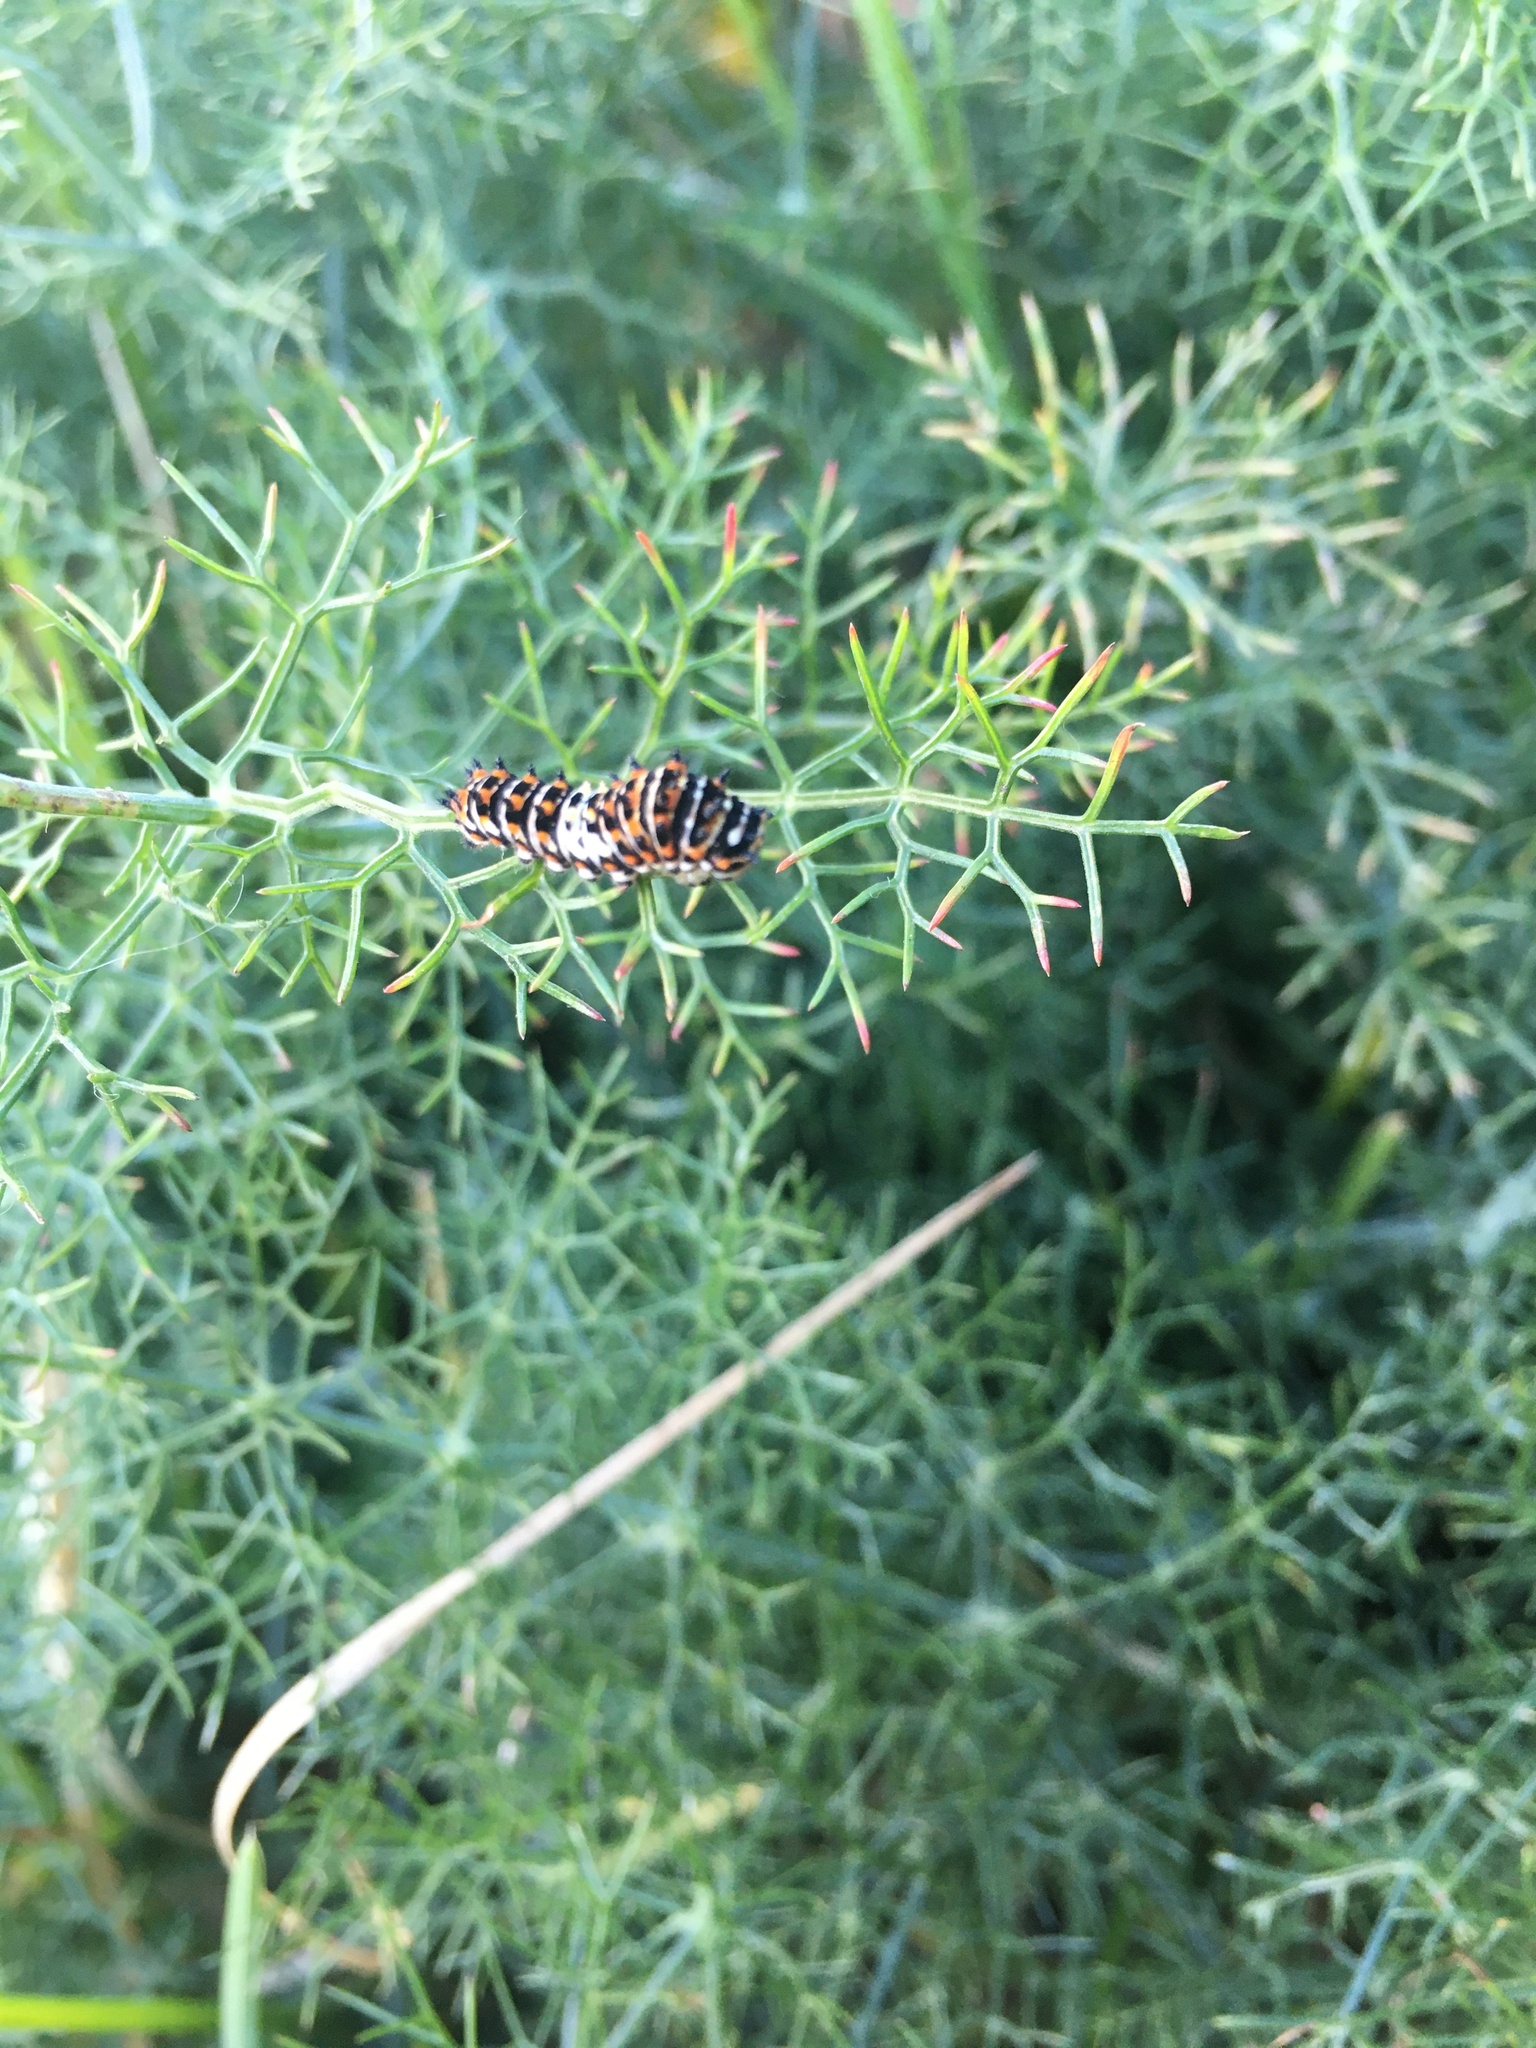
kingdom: Animalia
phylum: Arthropoda
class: Insecta
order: Lepidoptera
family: Papilionidae
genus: Papilio
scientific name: Papilio zelicaon
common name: Anise swallowtail
